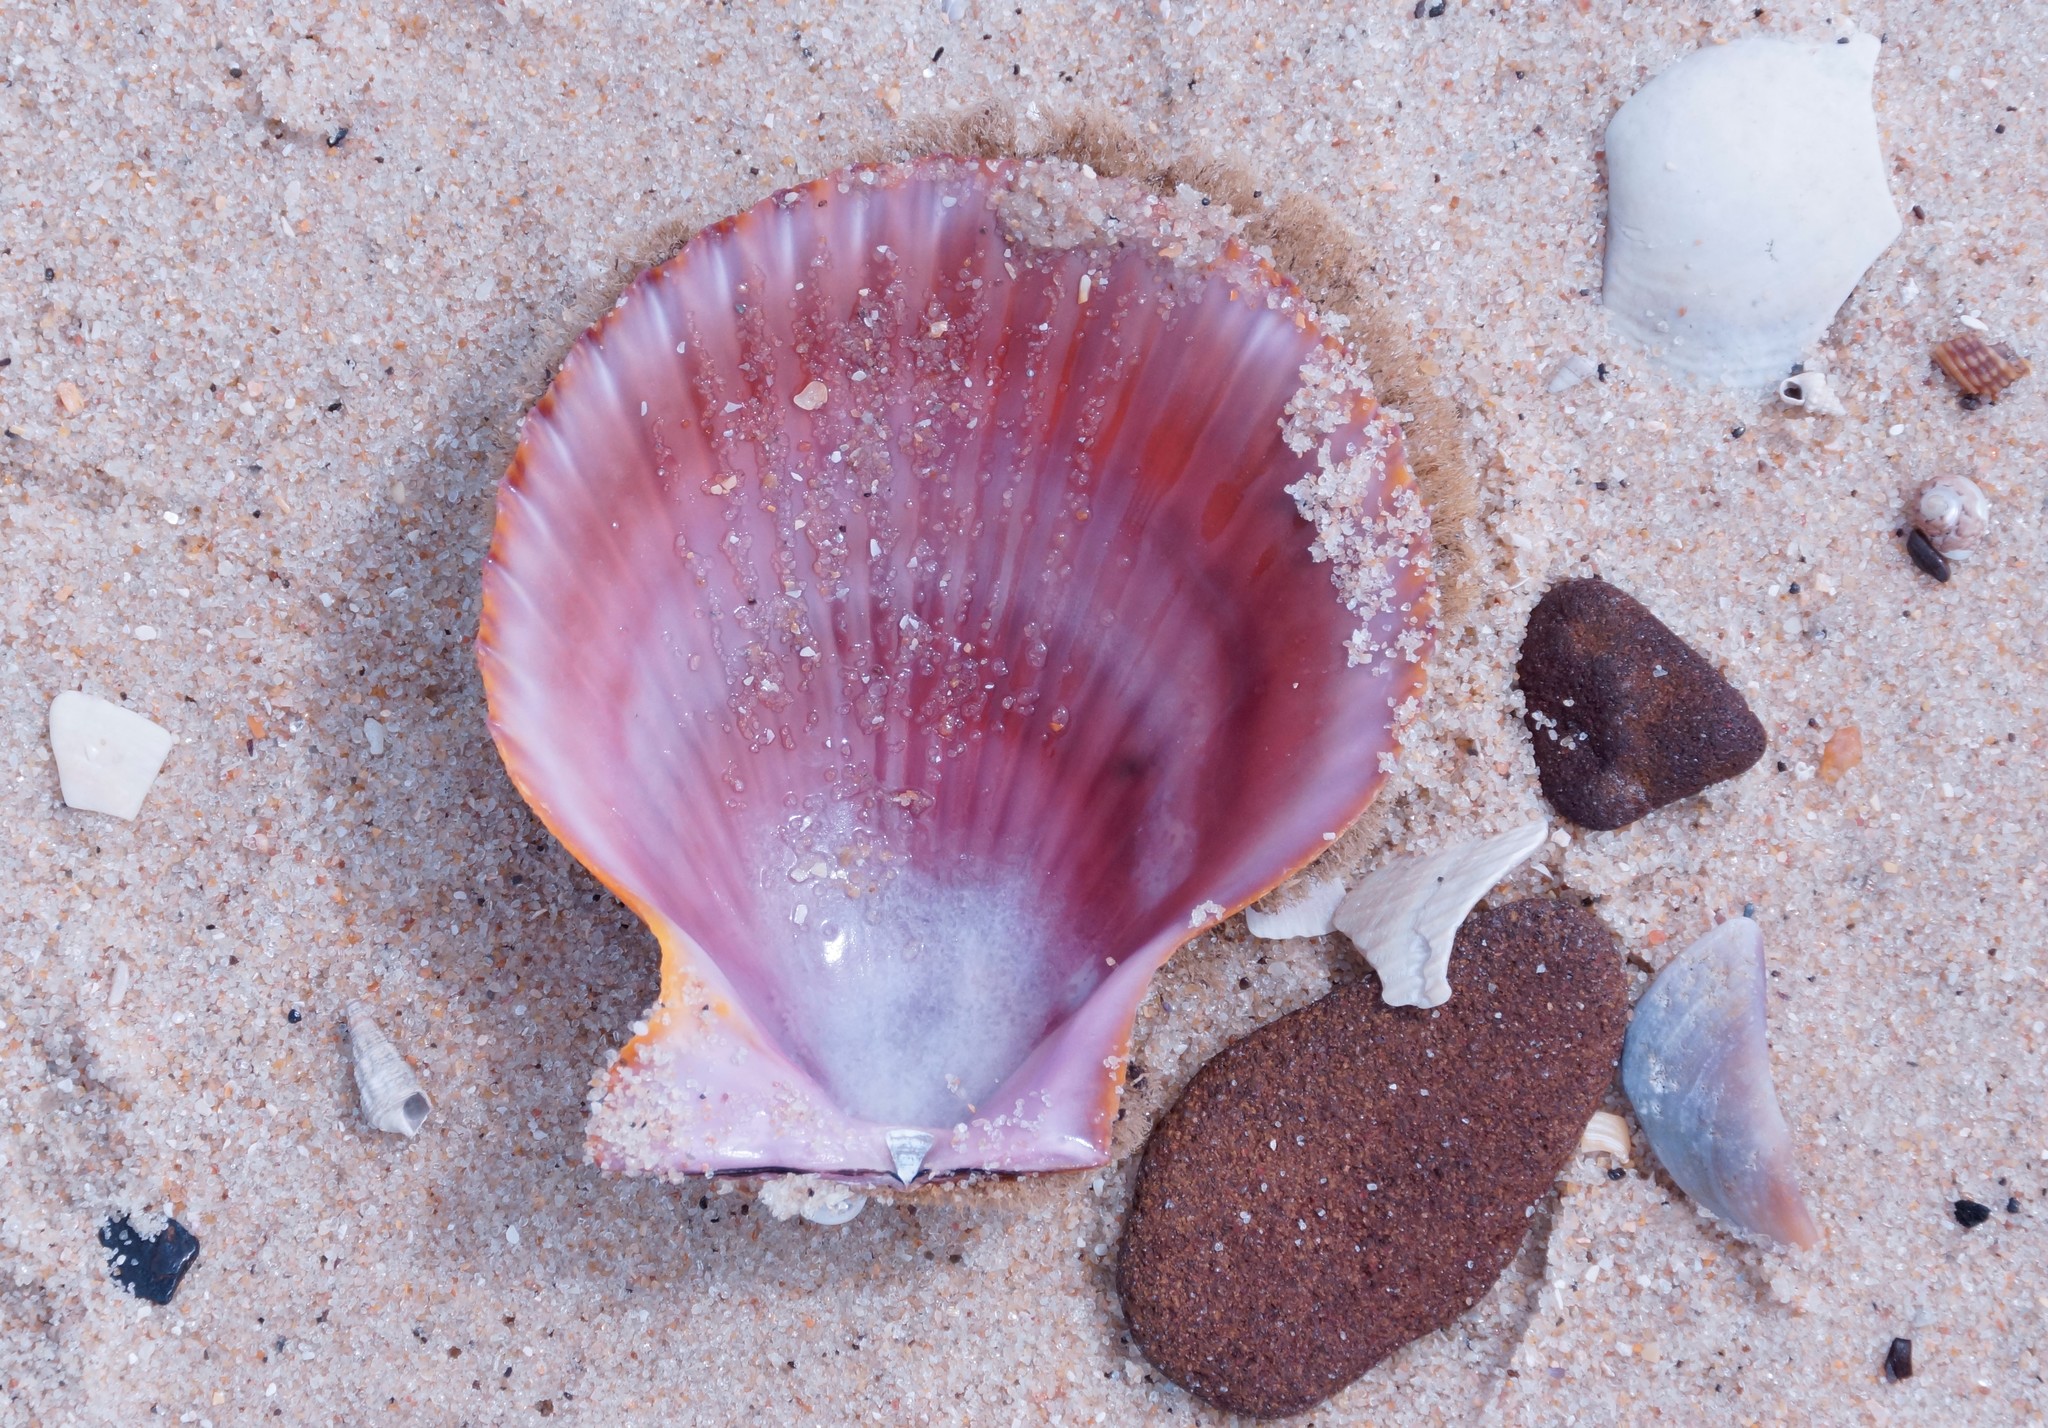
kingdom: Animalia
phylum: Mollusca
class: Bivalvia
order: Pectinida
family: Pectinidae
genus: Mimachlamys
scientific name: Mimachlamys asperrima
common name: Austral scallop
